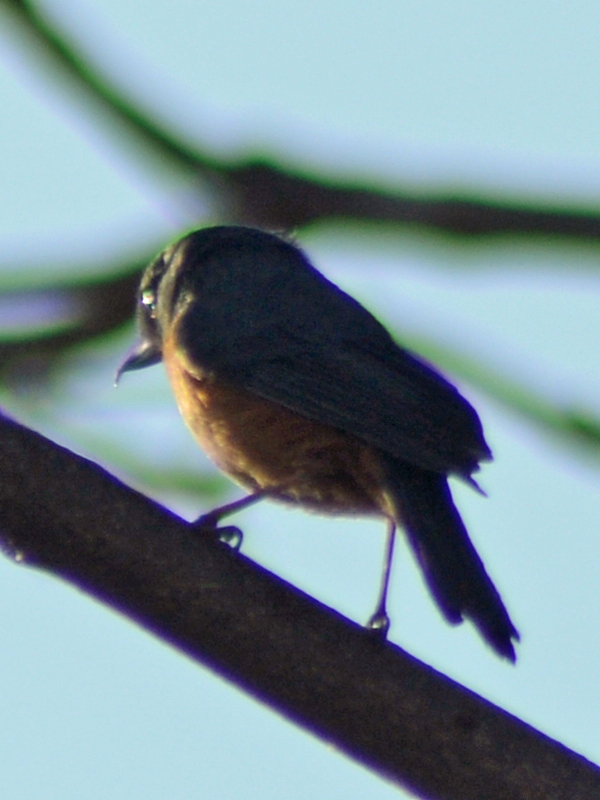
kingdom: Animalia
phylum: Chordata
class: Aves
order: Passeriformes
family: Thraupidae
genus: Diglossa
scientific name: Diglossa baritula
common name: Cinnamon-bellied flowerpiercer
